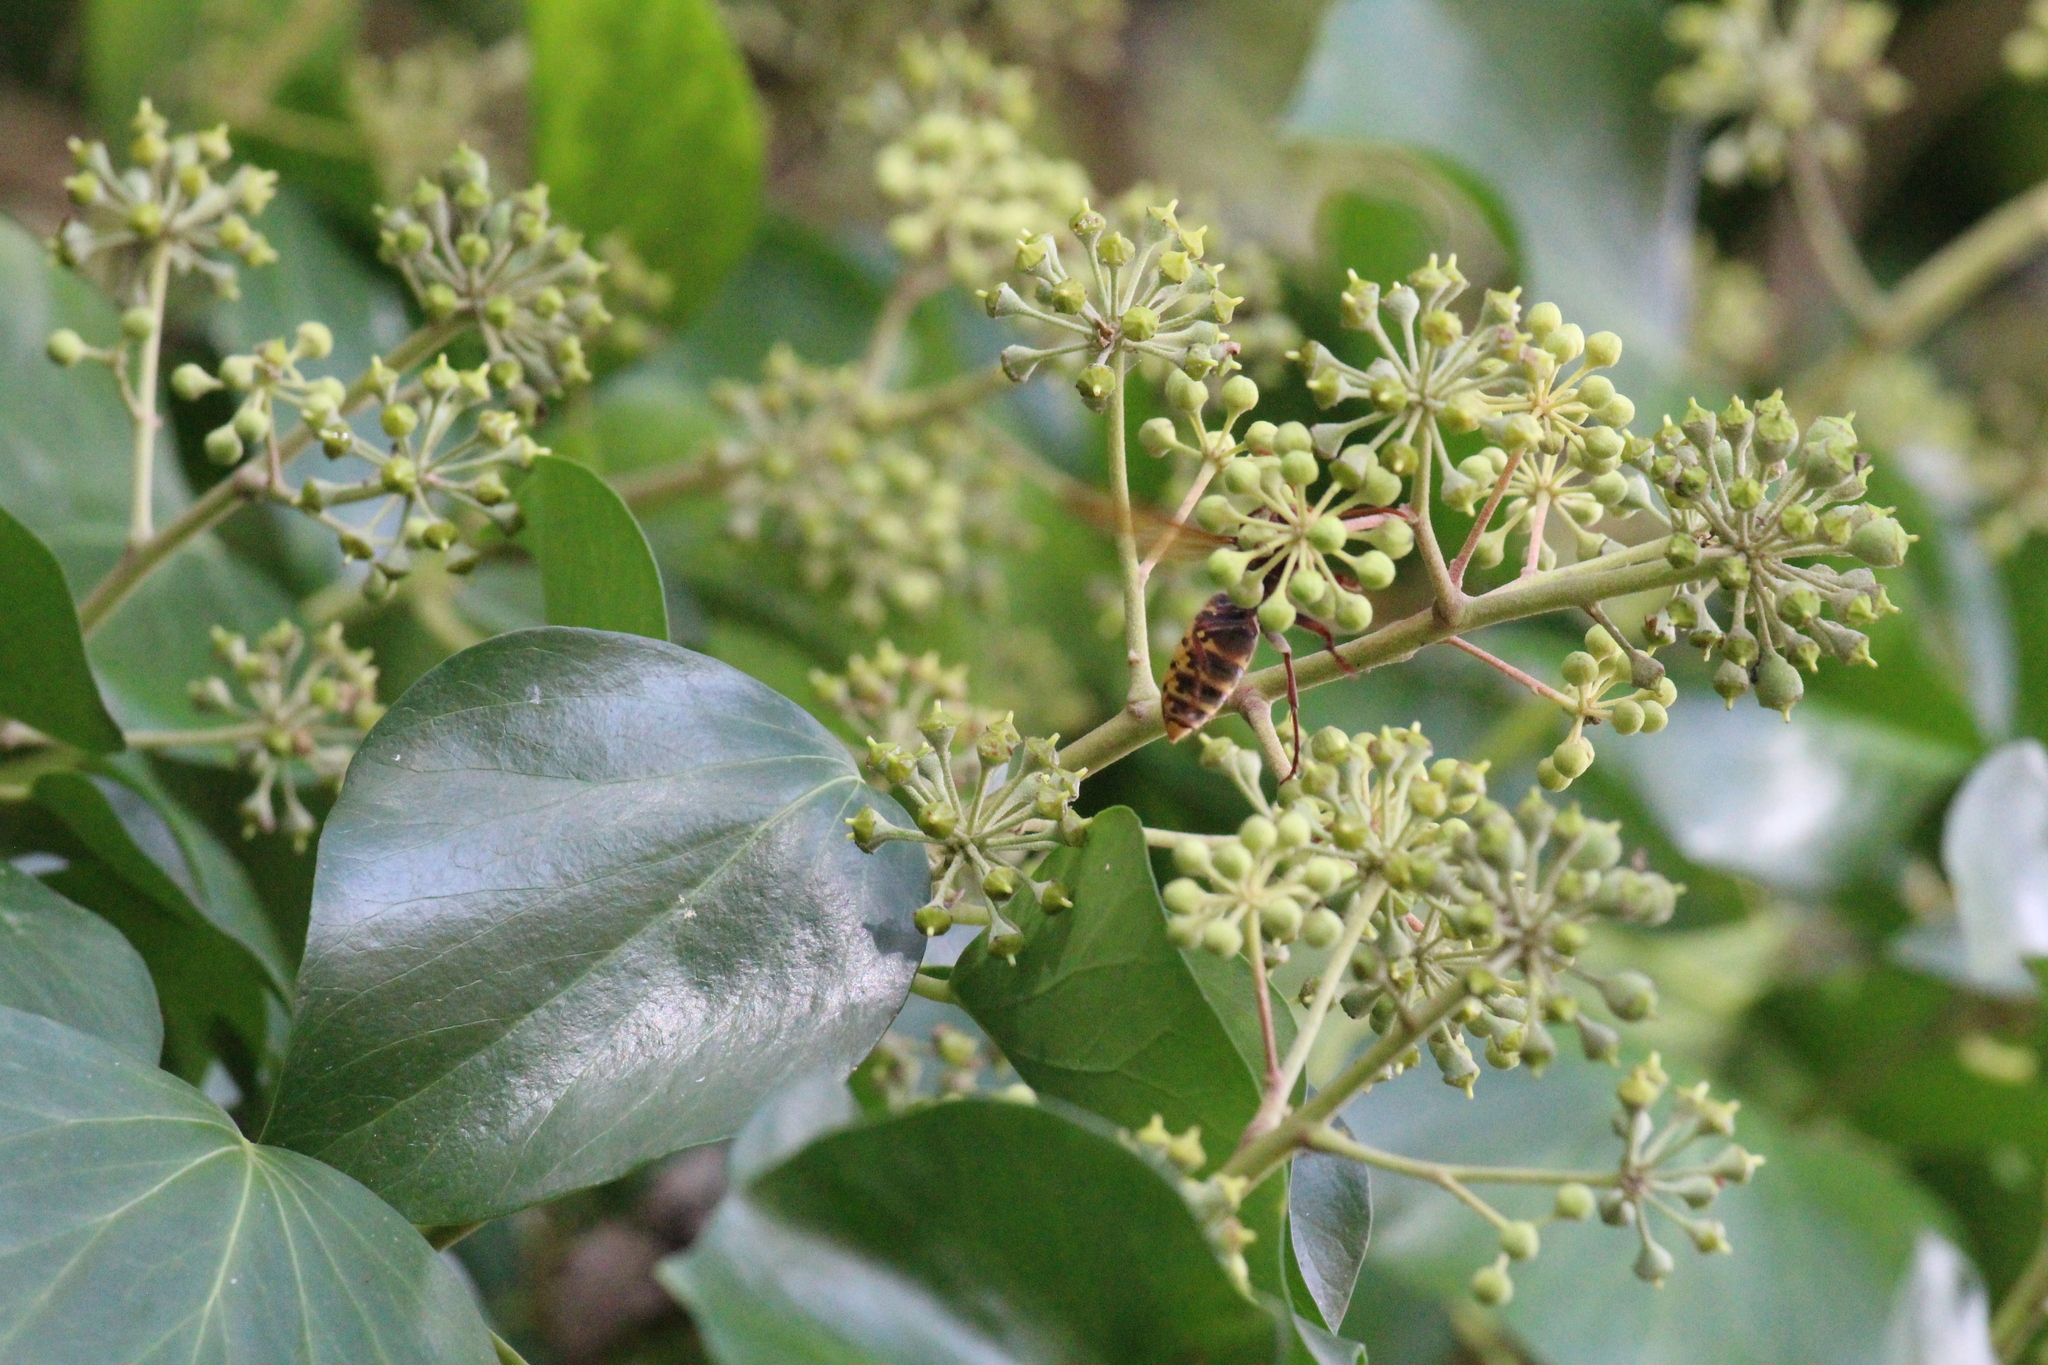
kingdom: Animalia
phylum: Arthropoda
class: Insecta
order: Hymenoptera
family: Vespidae
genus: Vespa
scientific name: Vespa crabro
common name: Hornet
